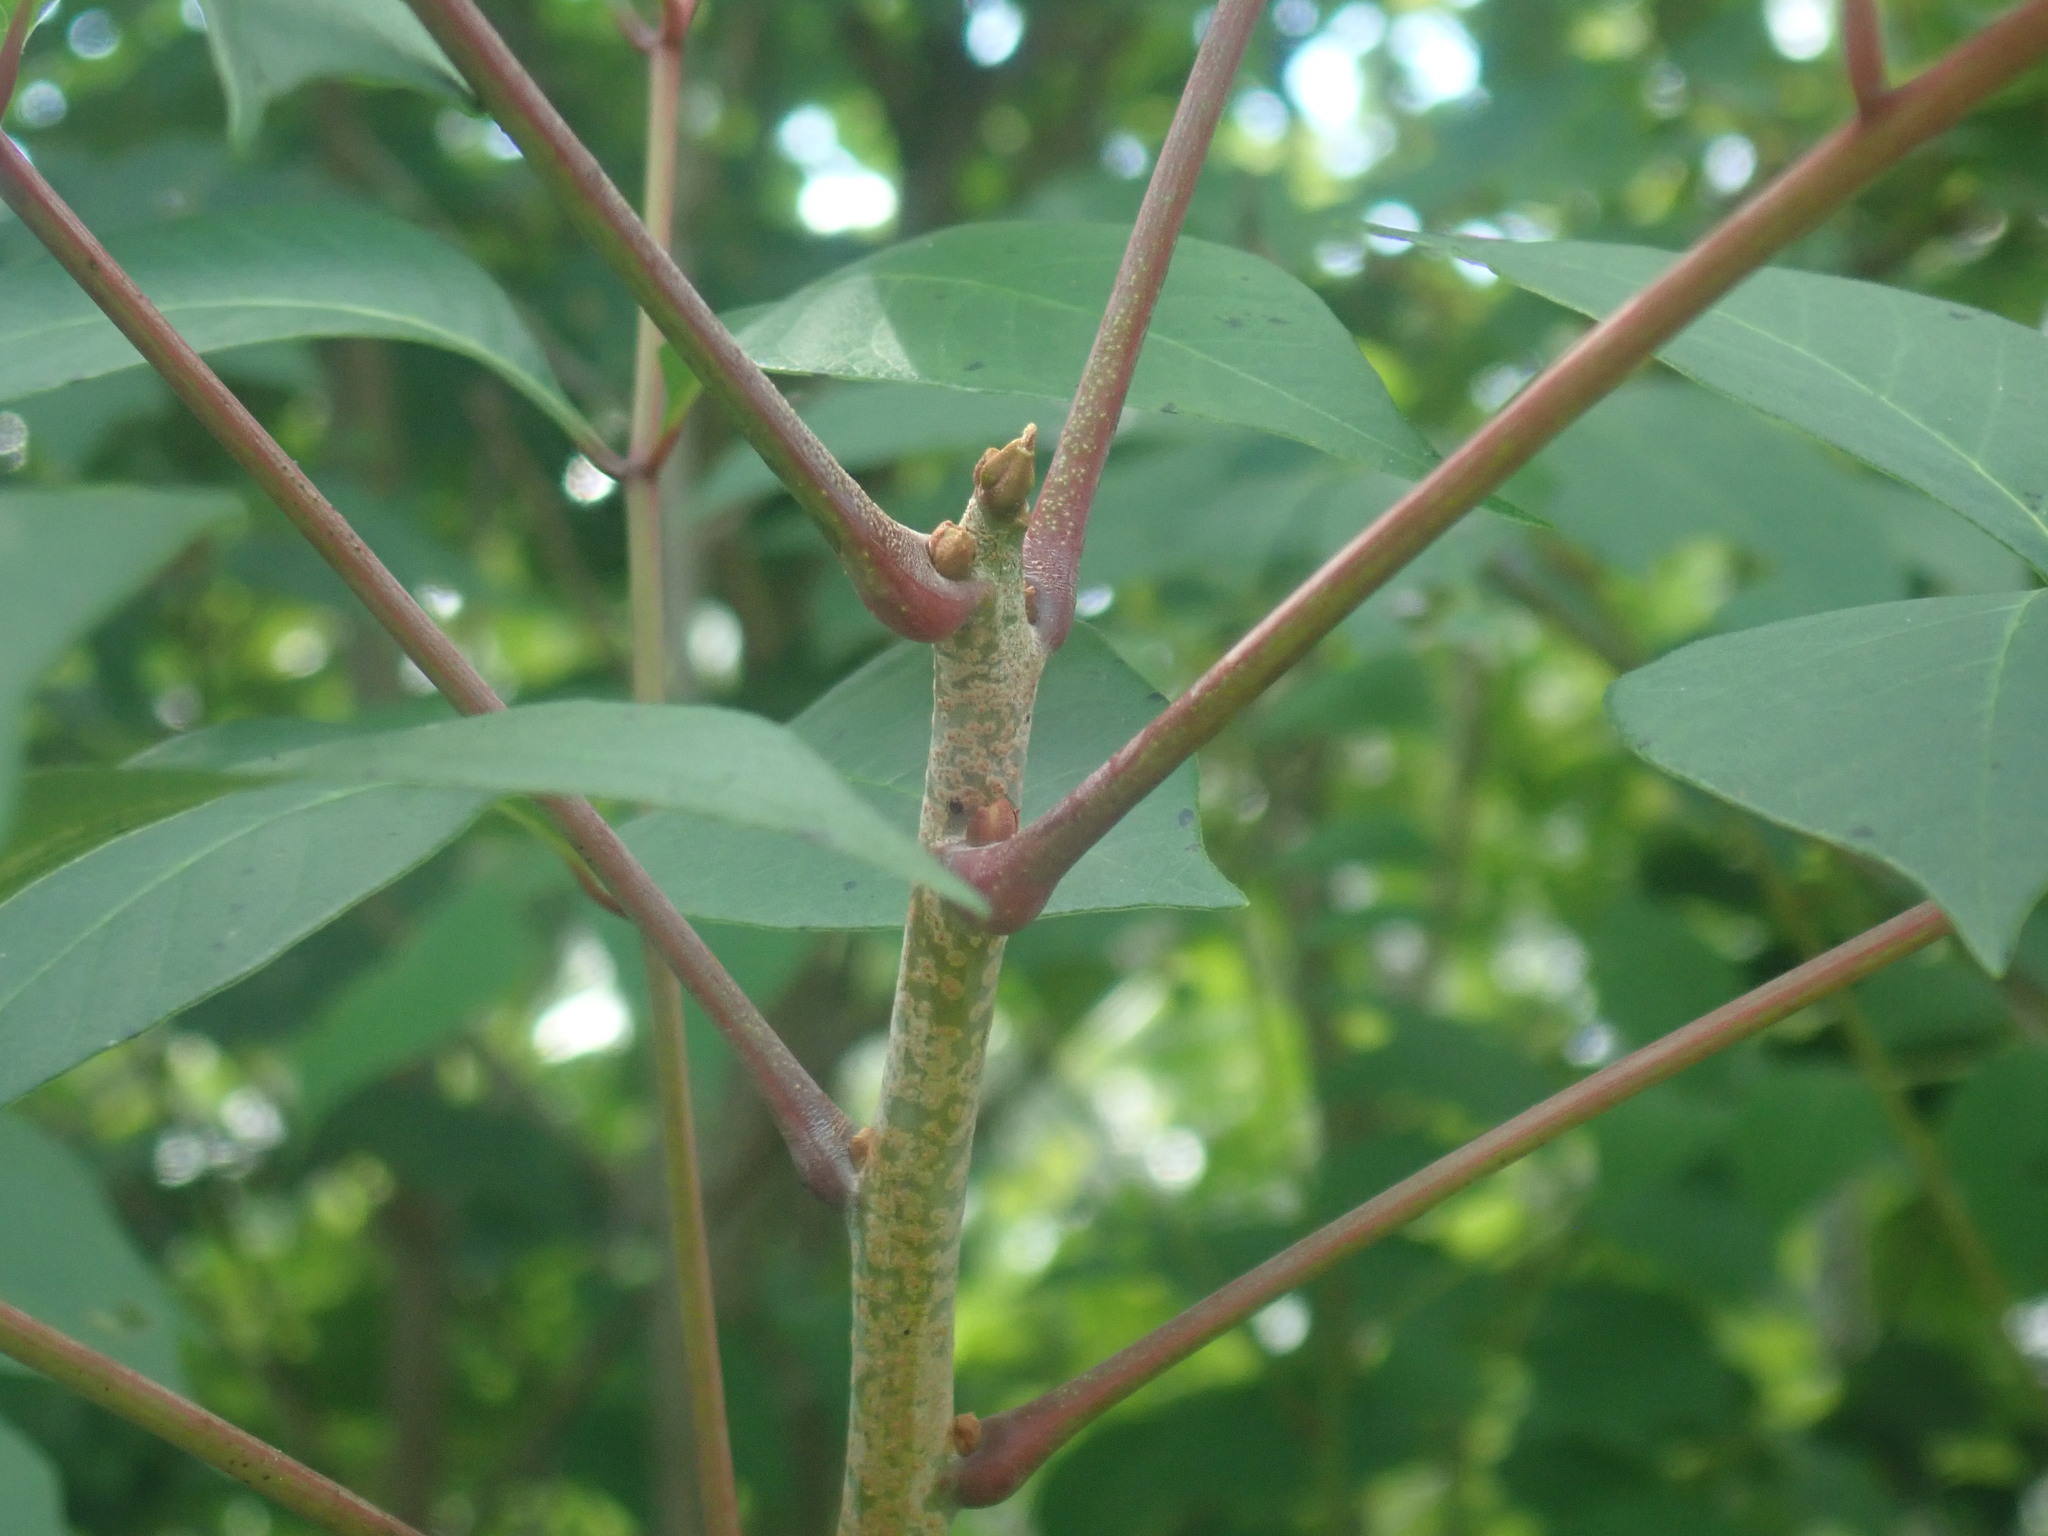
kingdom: Plantae
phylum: Tracheophyta
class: Magnoliopsida
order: Sapindales
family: Anacardiaceae
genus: Toxicodendron
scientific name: Toxicodendron vernix
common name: Poison sumac
